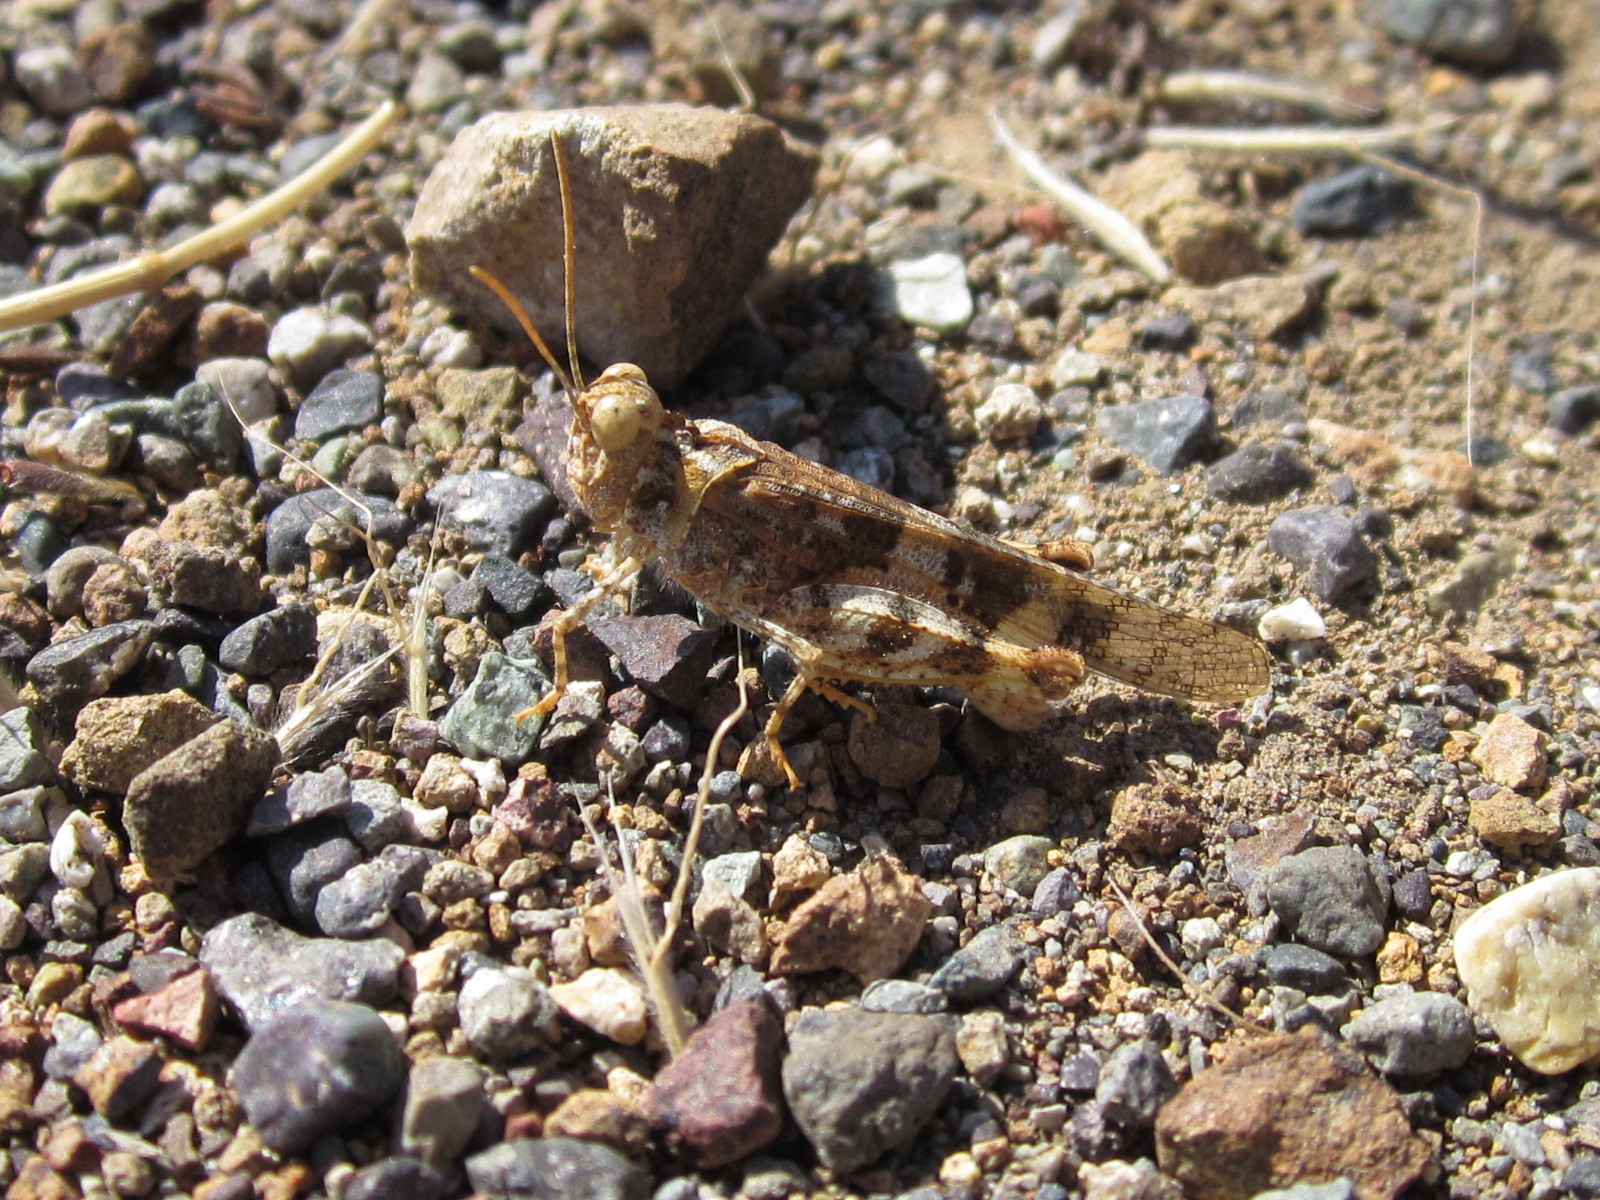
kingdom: Animalia
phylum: Arthropoda
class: Insecta
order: Orthoptera
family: Acrididae
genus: Trimerotropis
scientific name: Trimerotropis ochraceipennis
